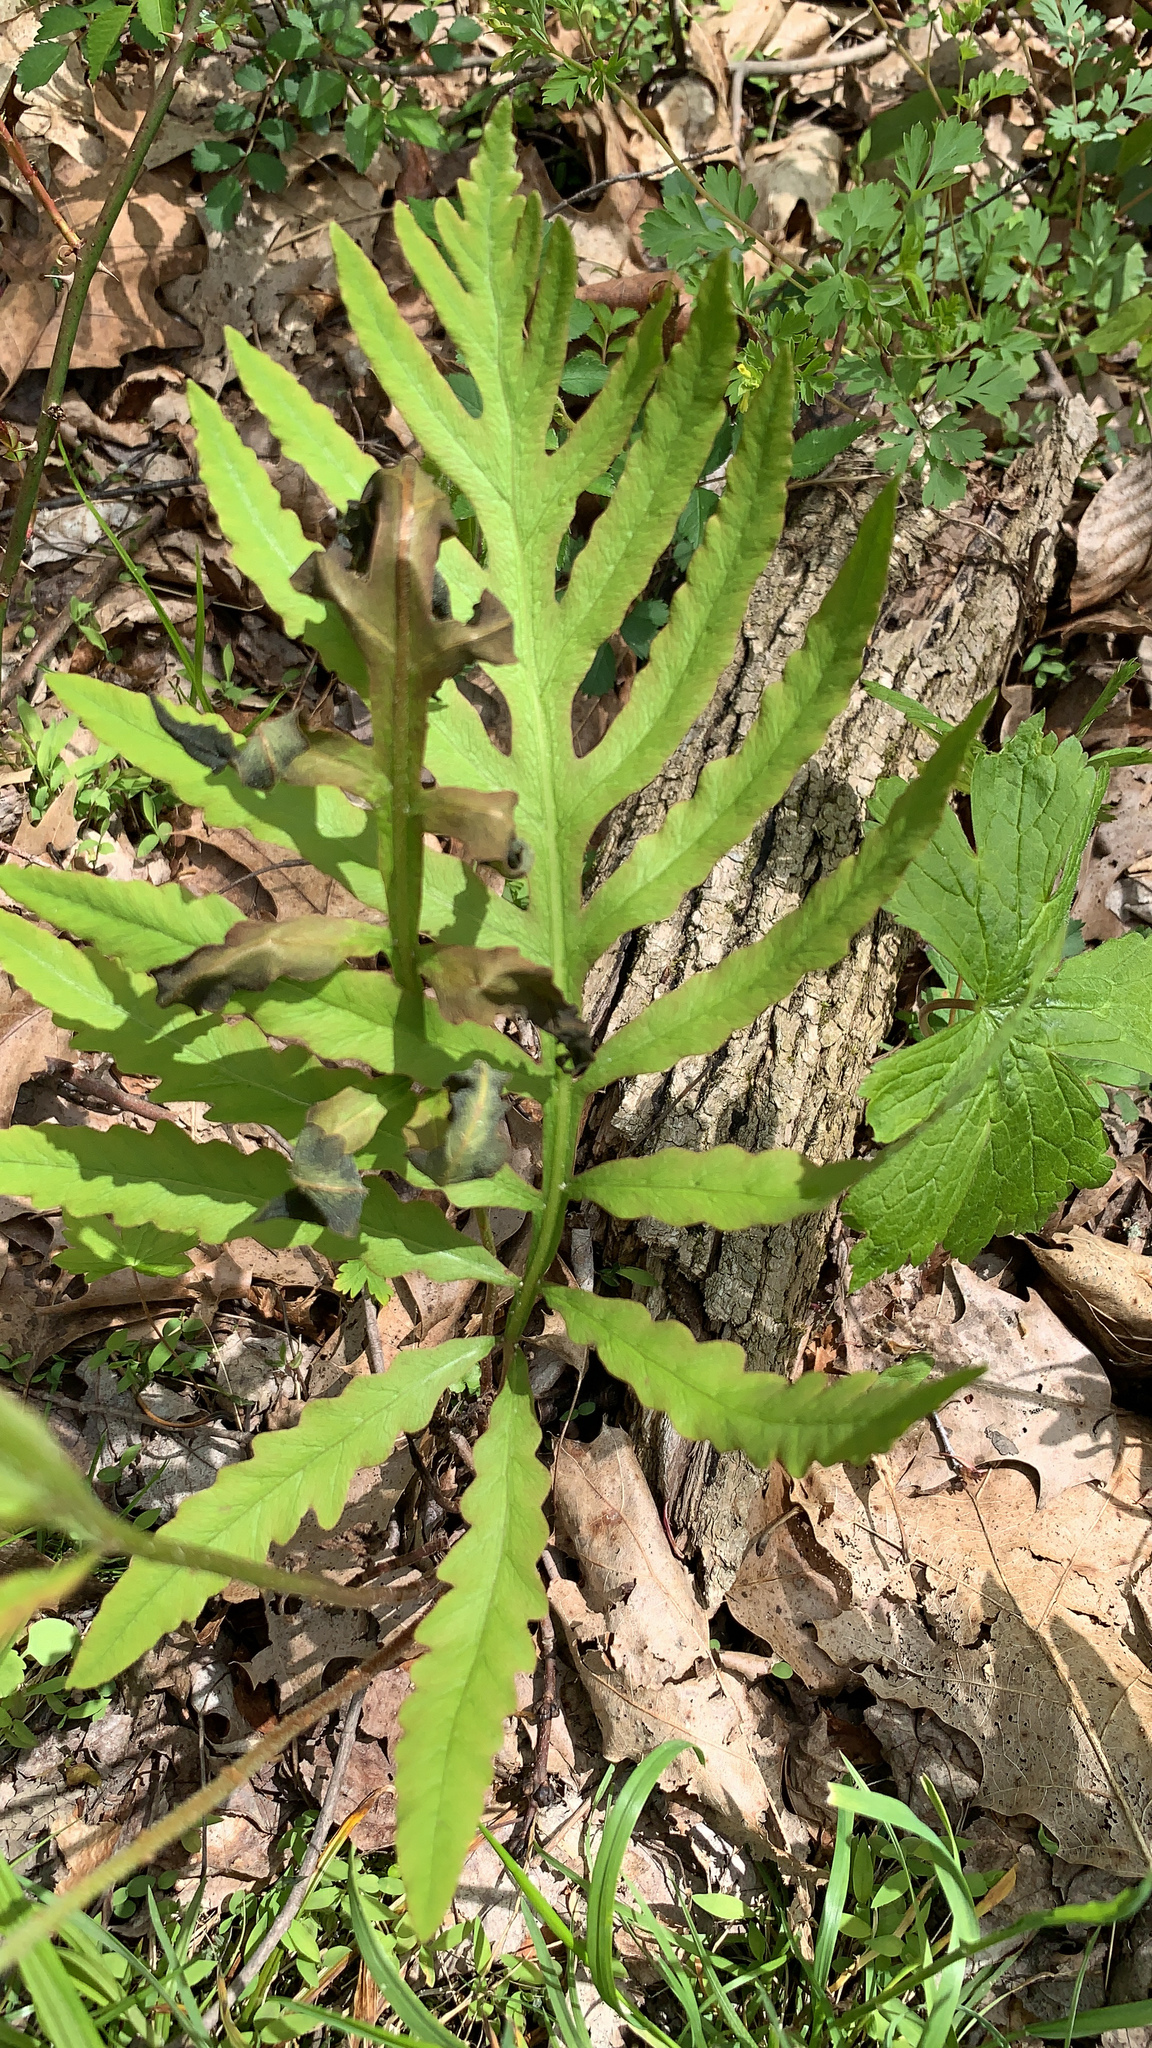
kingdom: Plantae
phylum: Tracheophyta
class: Polypodiopsida
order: Polypodiales
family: Onocleaceae
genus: Onoclea
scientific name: Onoclea sensibilis
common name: Sensitive fern
